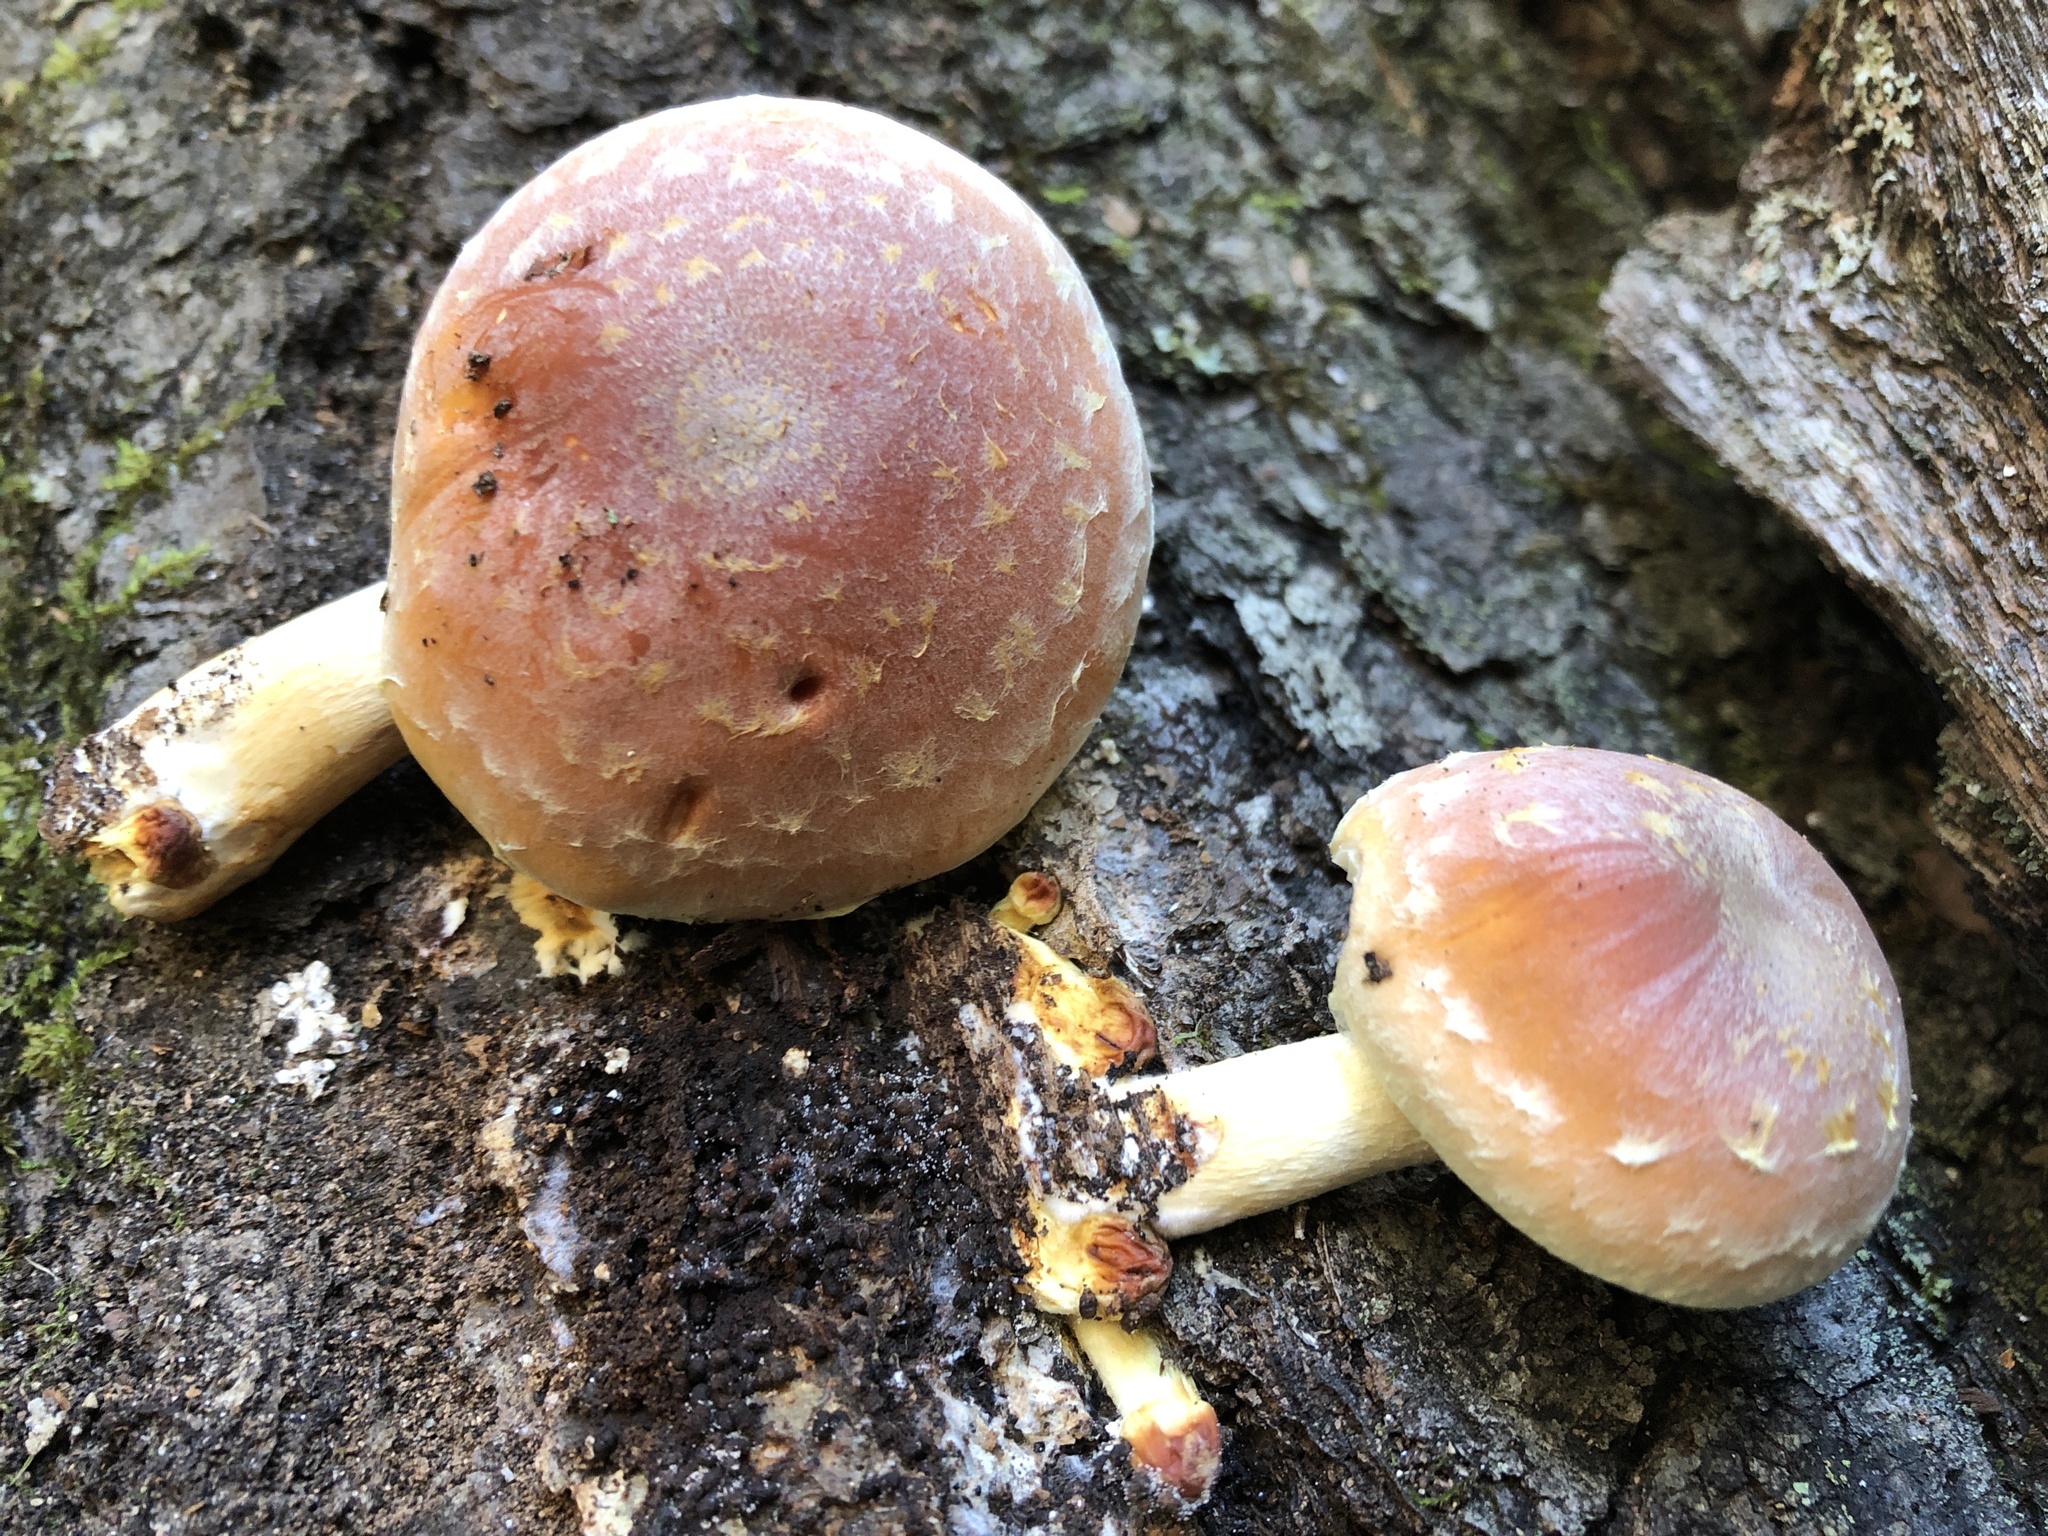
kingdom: Fungi
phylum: Basidiomycota
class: Agaricomycetes
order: Agaricales
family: Strophariaceae
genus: Hypholoma
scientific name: Hypholoma lateritium
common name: Brick caps
